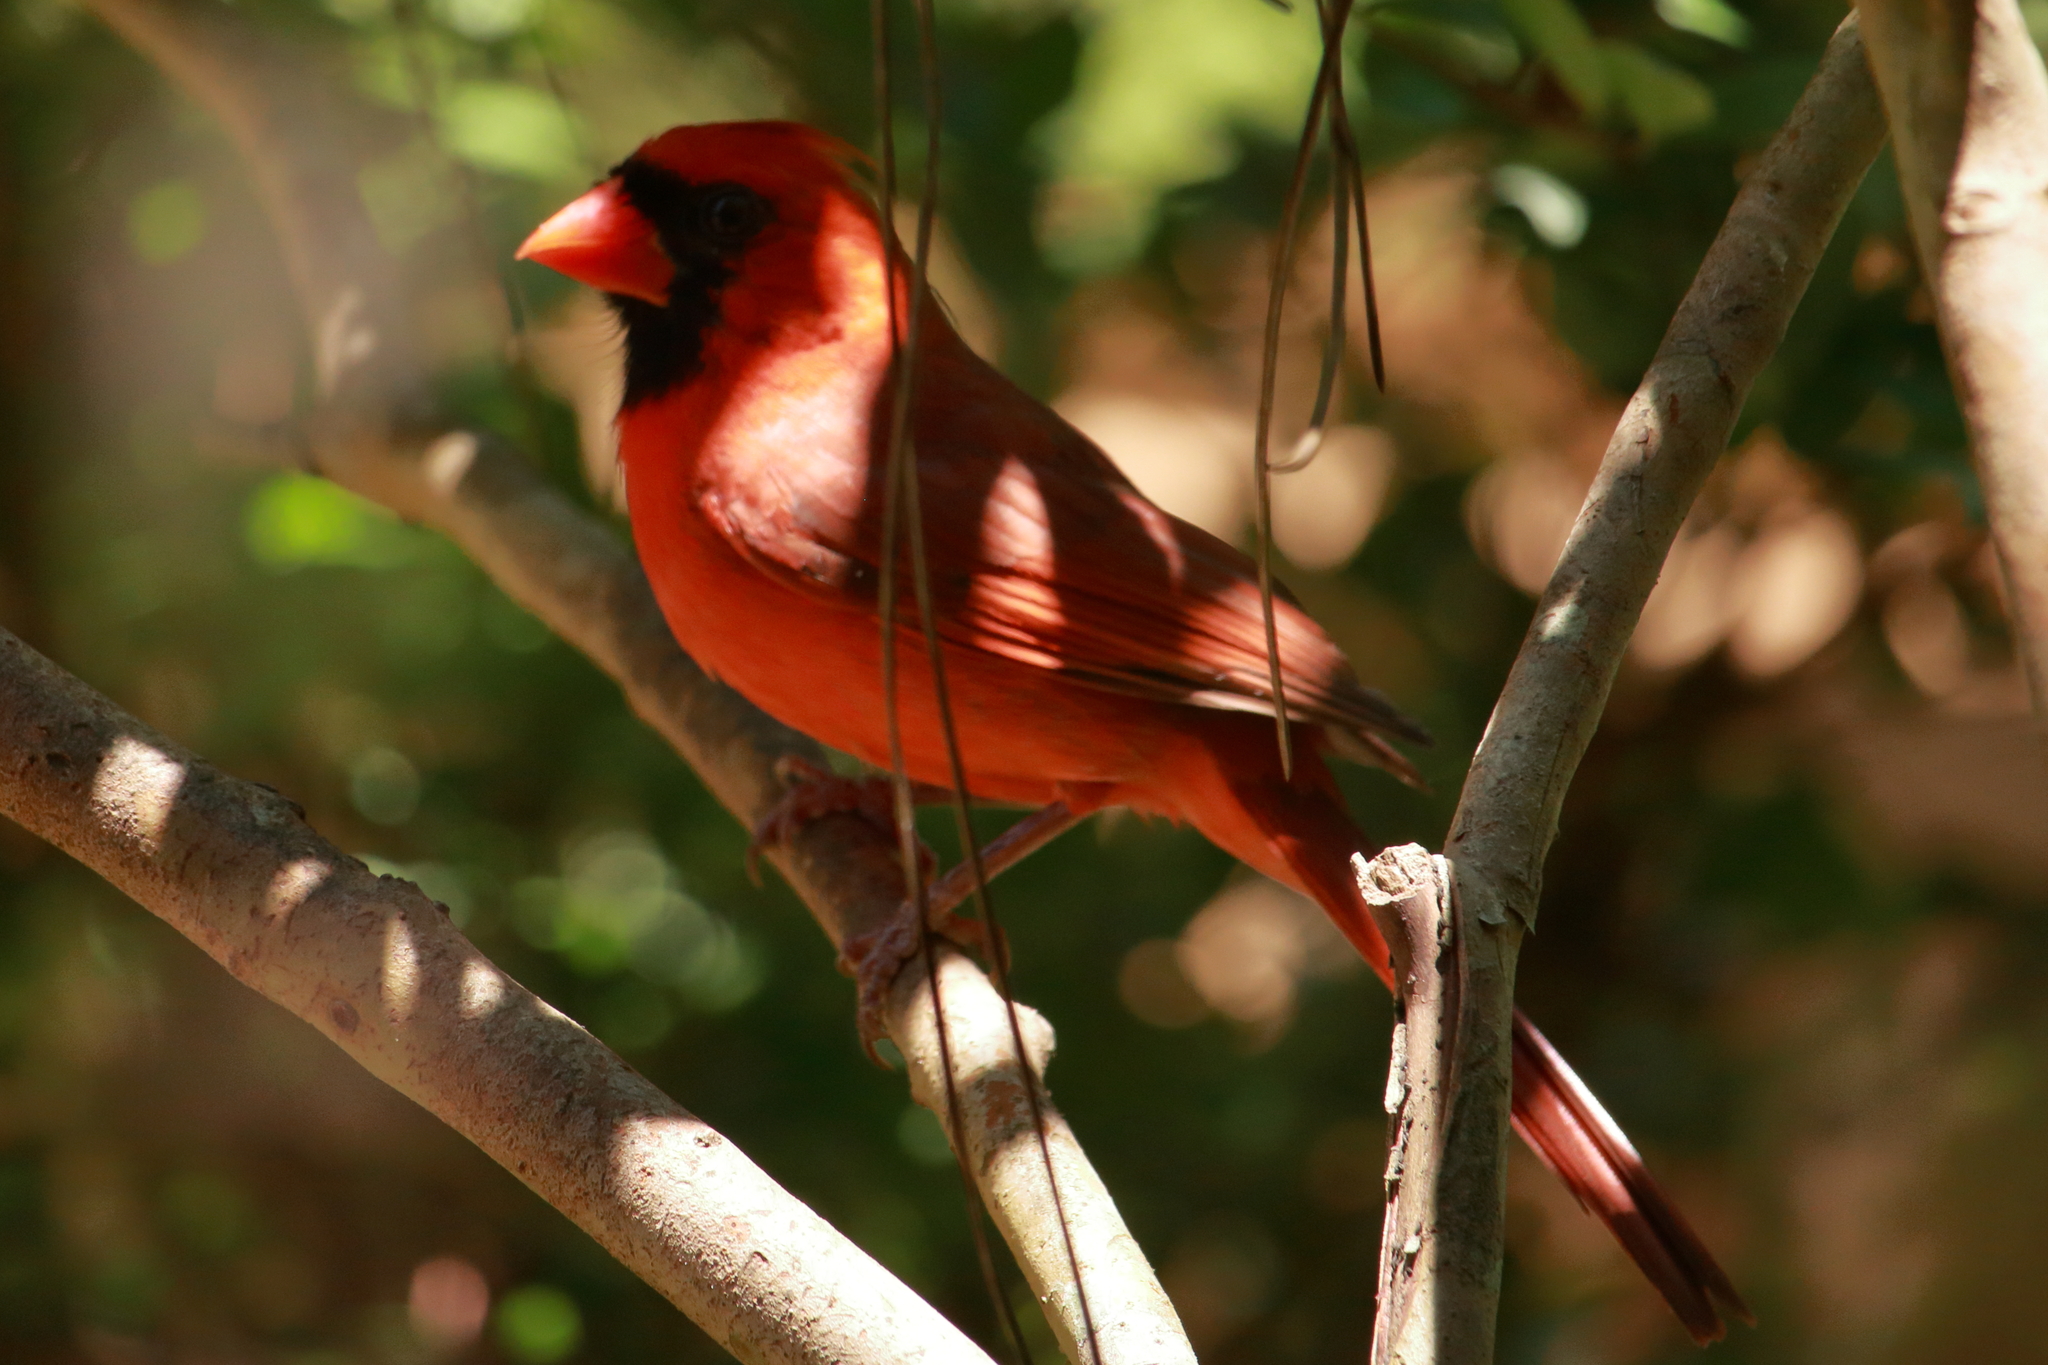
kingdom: Animalia
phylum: Chordata
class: Aves
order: Passeriformes
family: Cardinalidae
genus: Cardinalis
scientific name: Cardinalis cardinalis
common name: Northern cardinal
